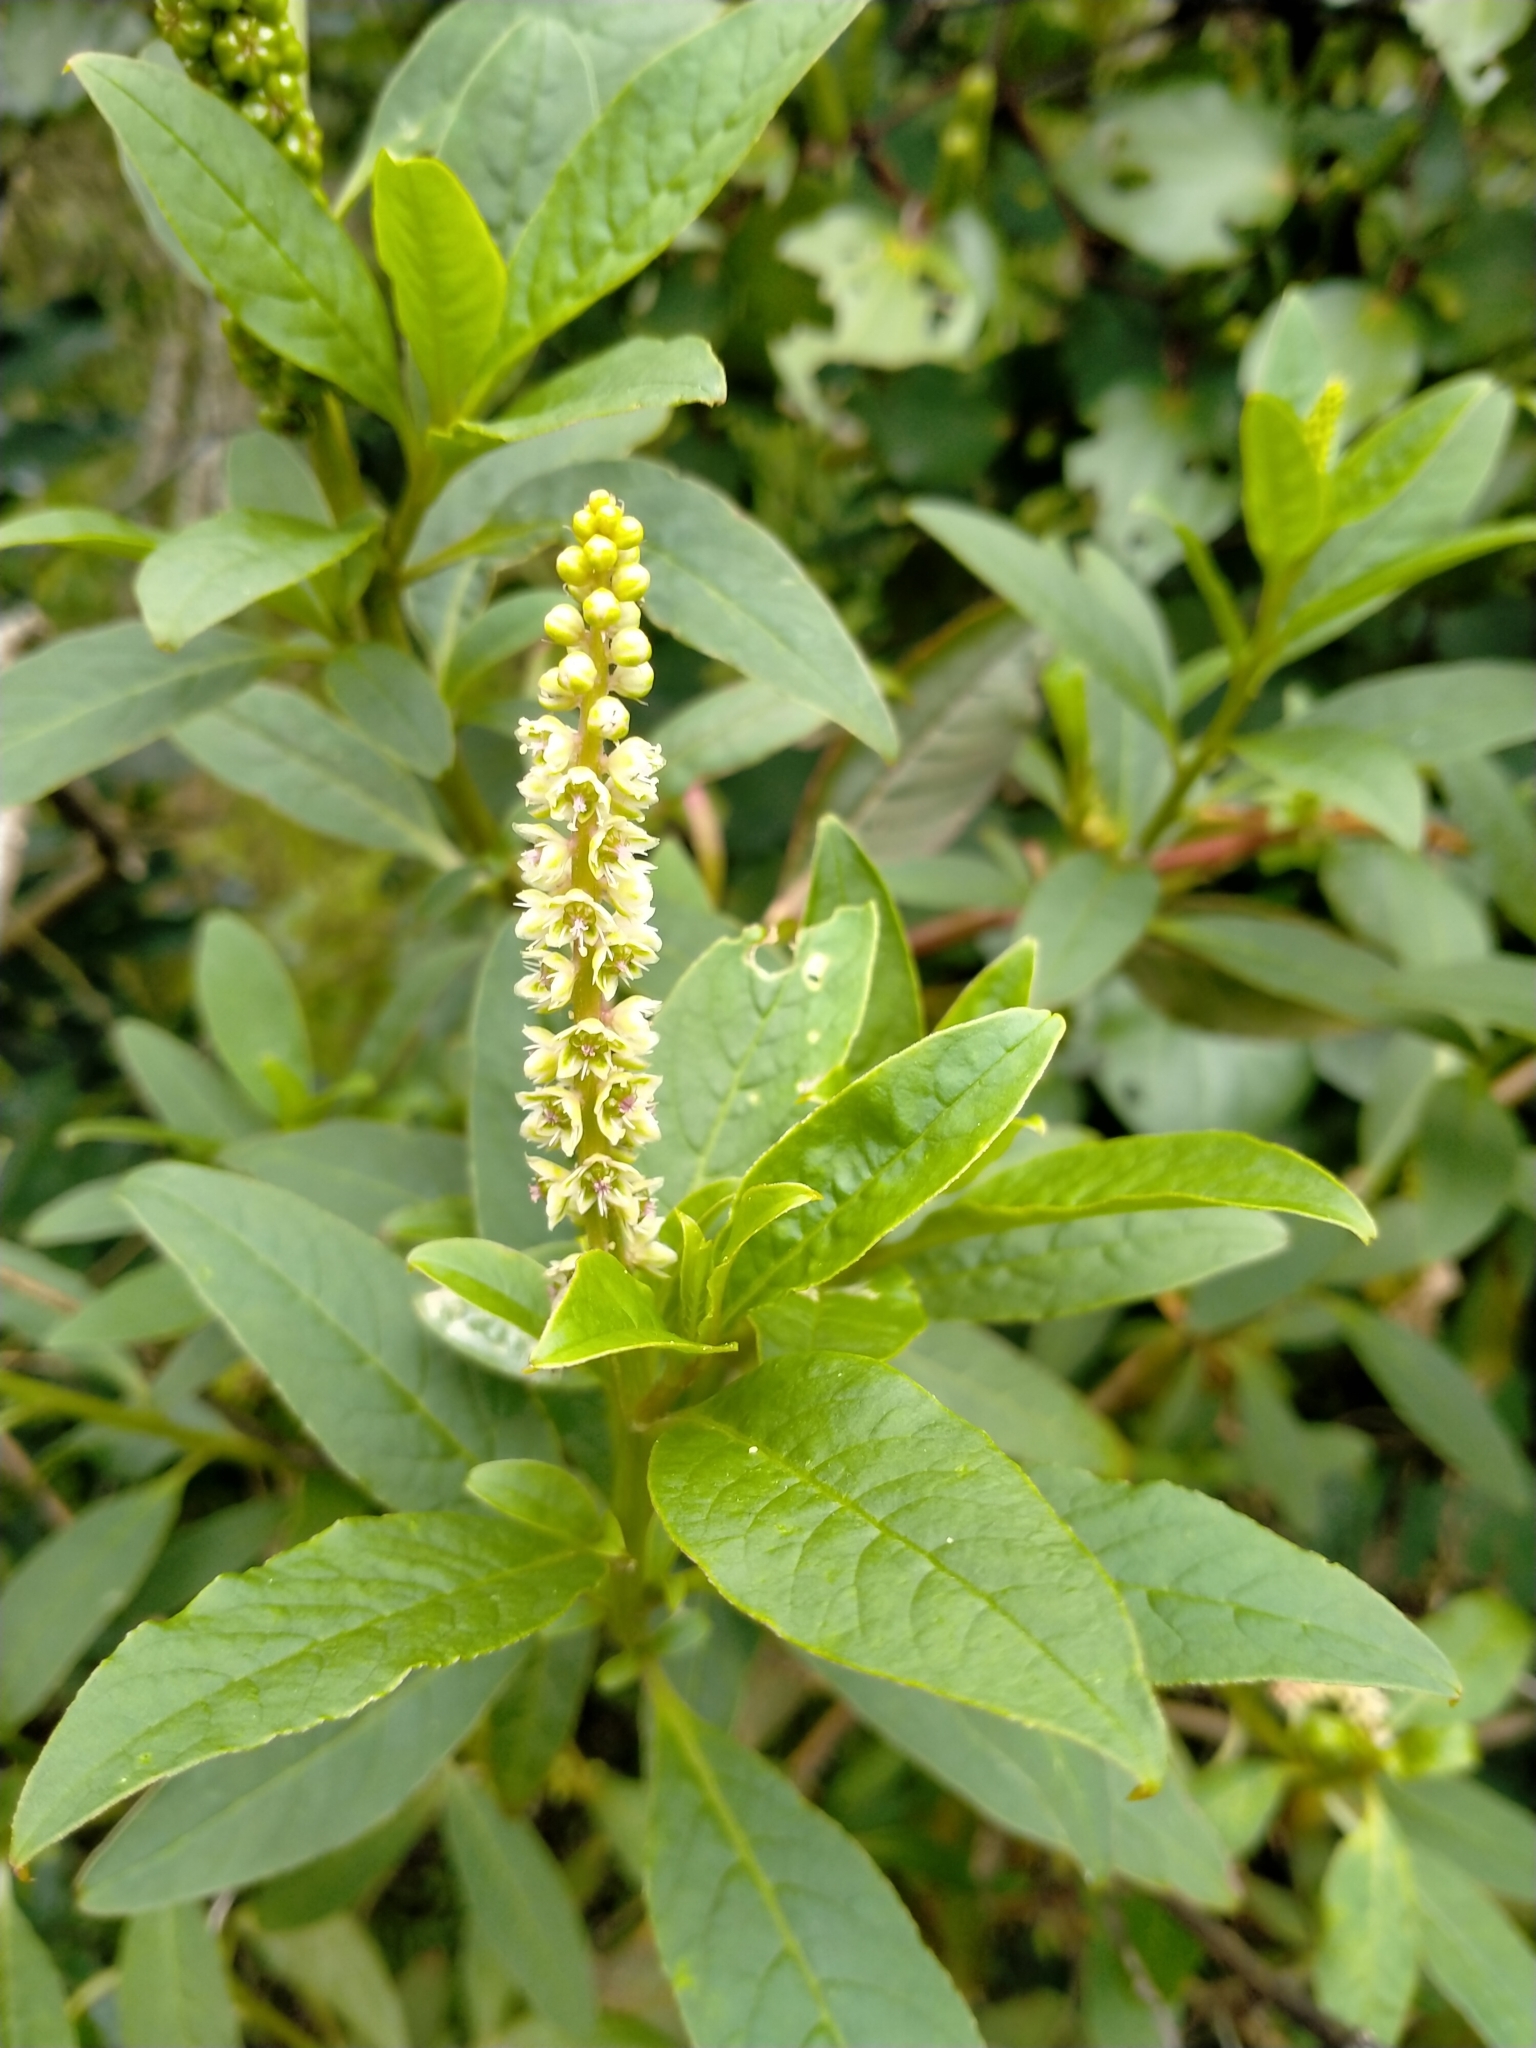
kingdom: Plantae
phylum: Tracheophyta
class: Magnoliopsida
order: Caryophyllales
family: Phytolaccaceae
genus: Phytolacca
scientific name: Phytolacca icosandra
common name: Button pokeweed
